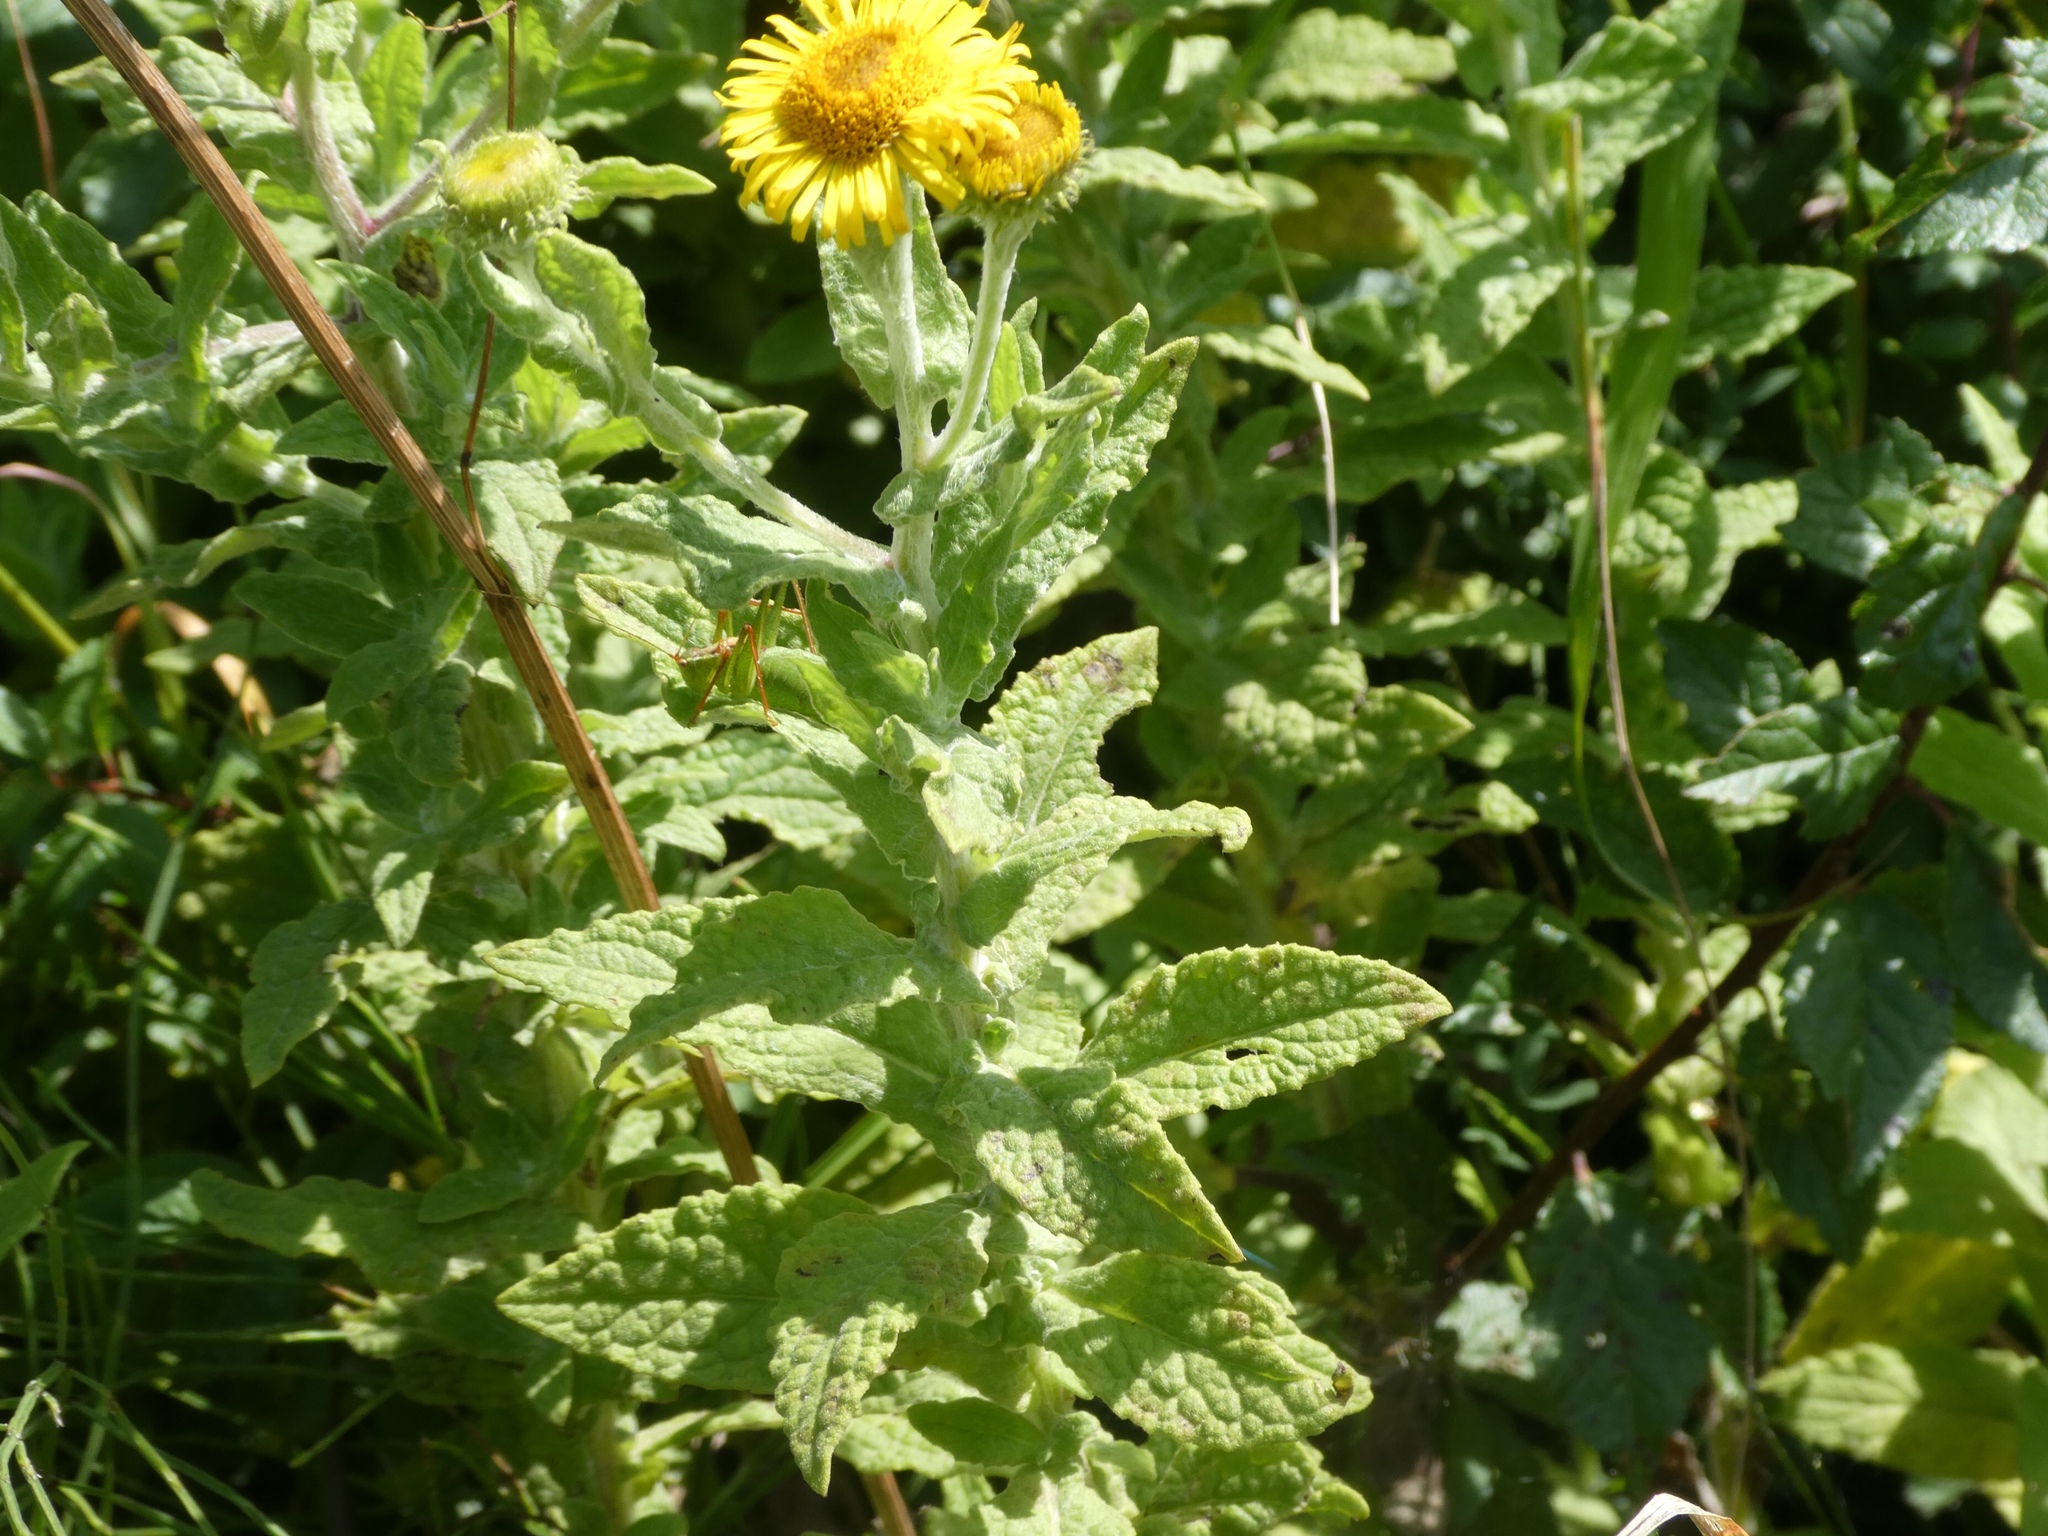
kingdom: Plantae
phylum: Tracheophyta
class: Magnoliopsida
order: Asterales
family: Asteraceae
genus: Pulicaria
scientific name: Pulicaria dysenterica
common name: Common fleabane
